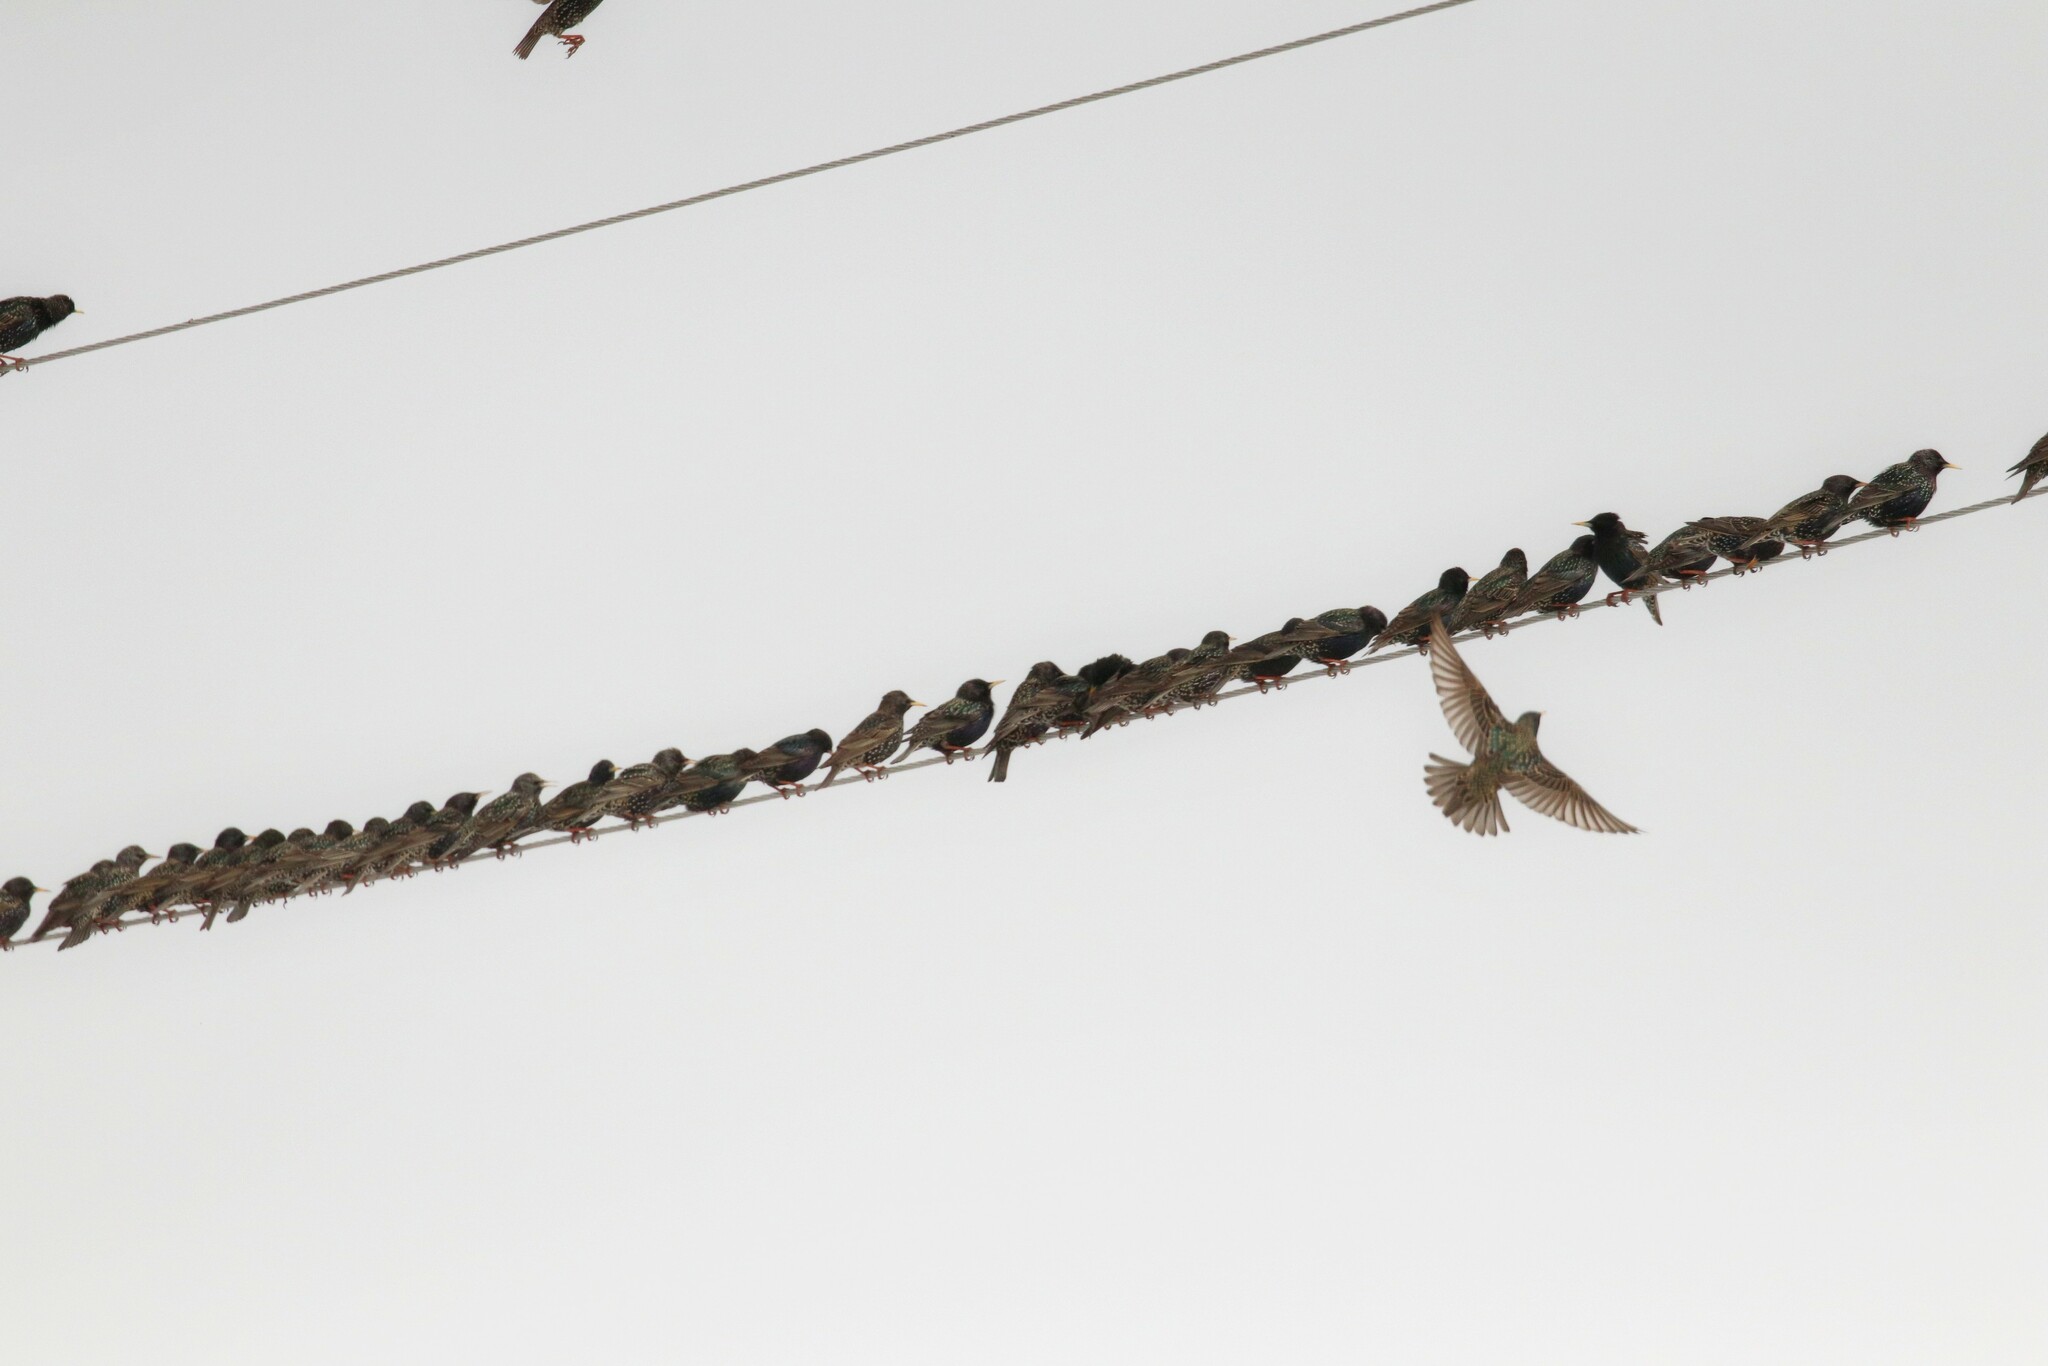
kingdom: Animalia
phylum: Chordata
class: Aves
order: Passeriformes
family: Sturnidae
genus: Sturnus
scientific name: Sturnus vulgaris
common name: Common starling
